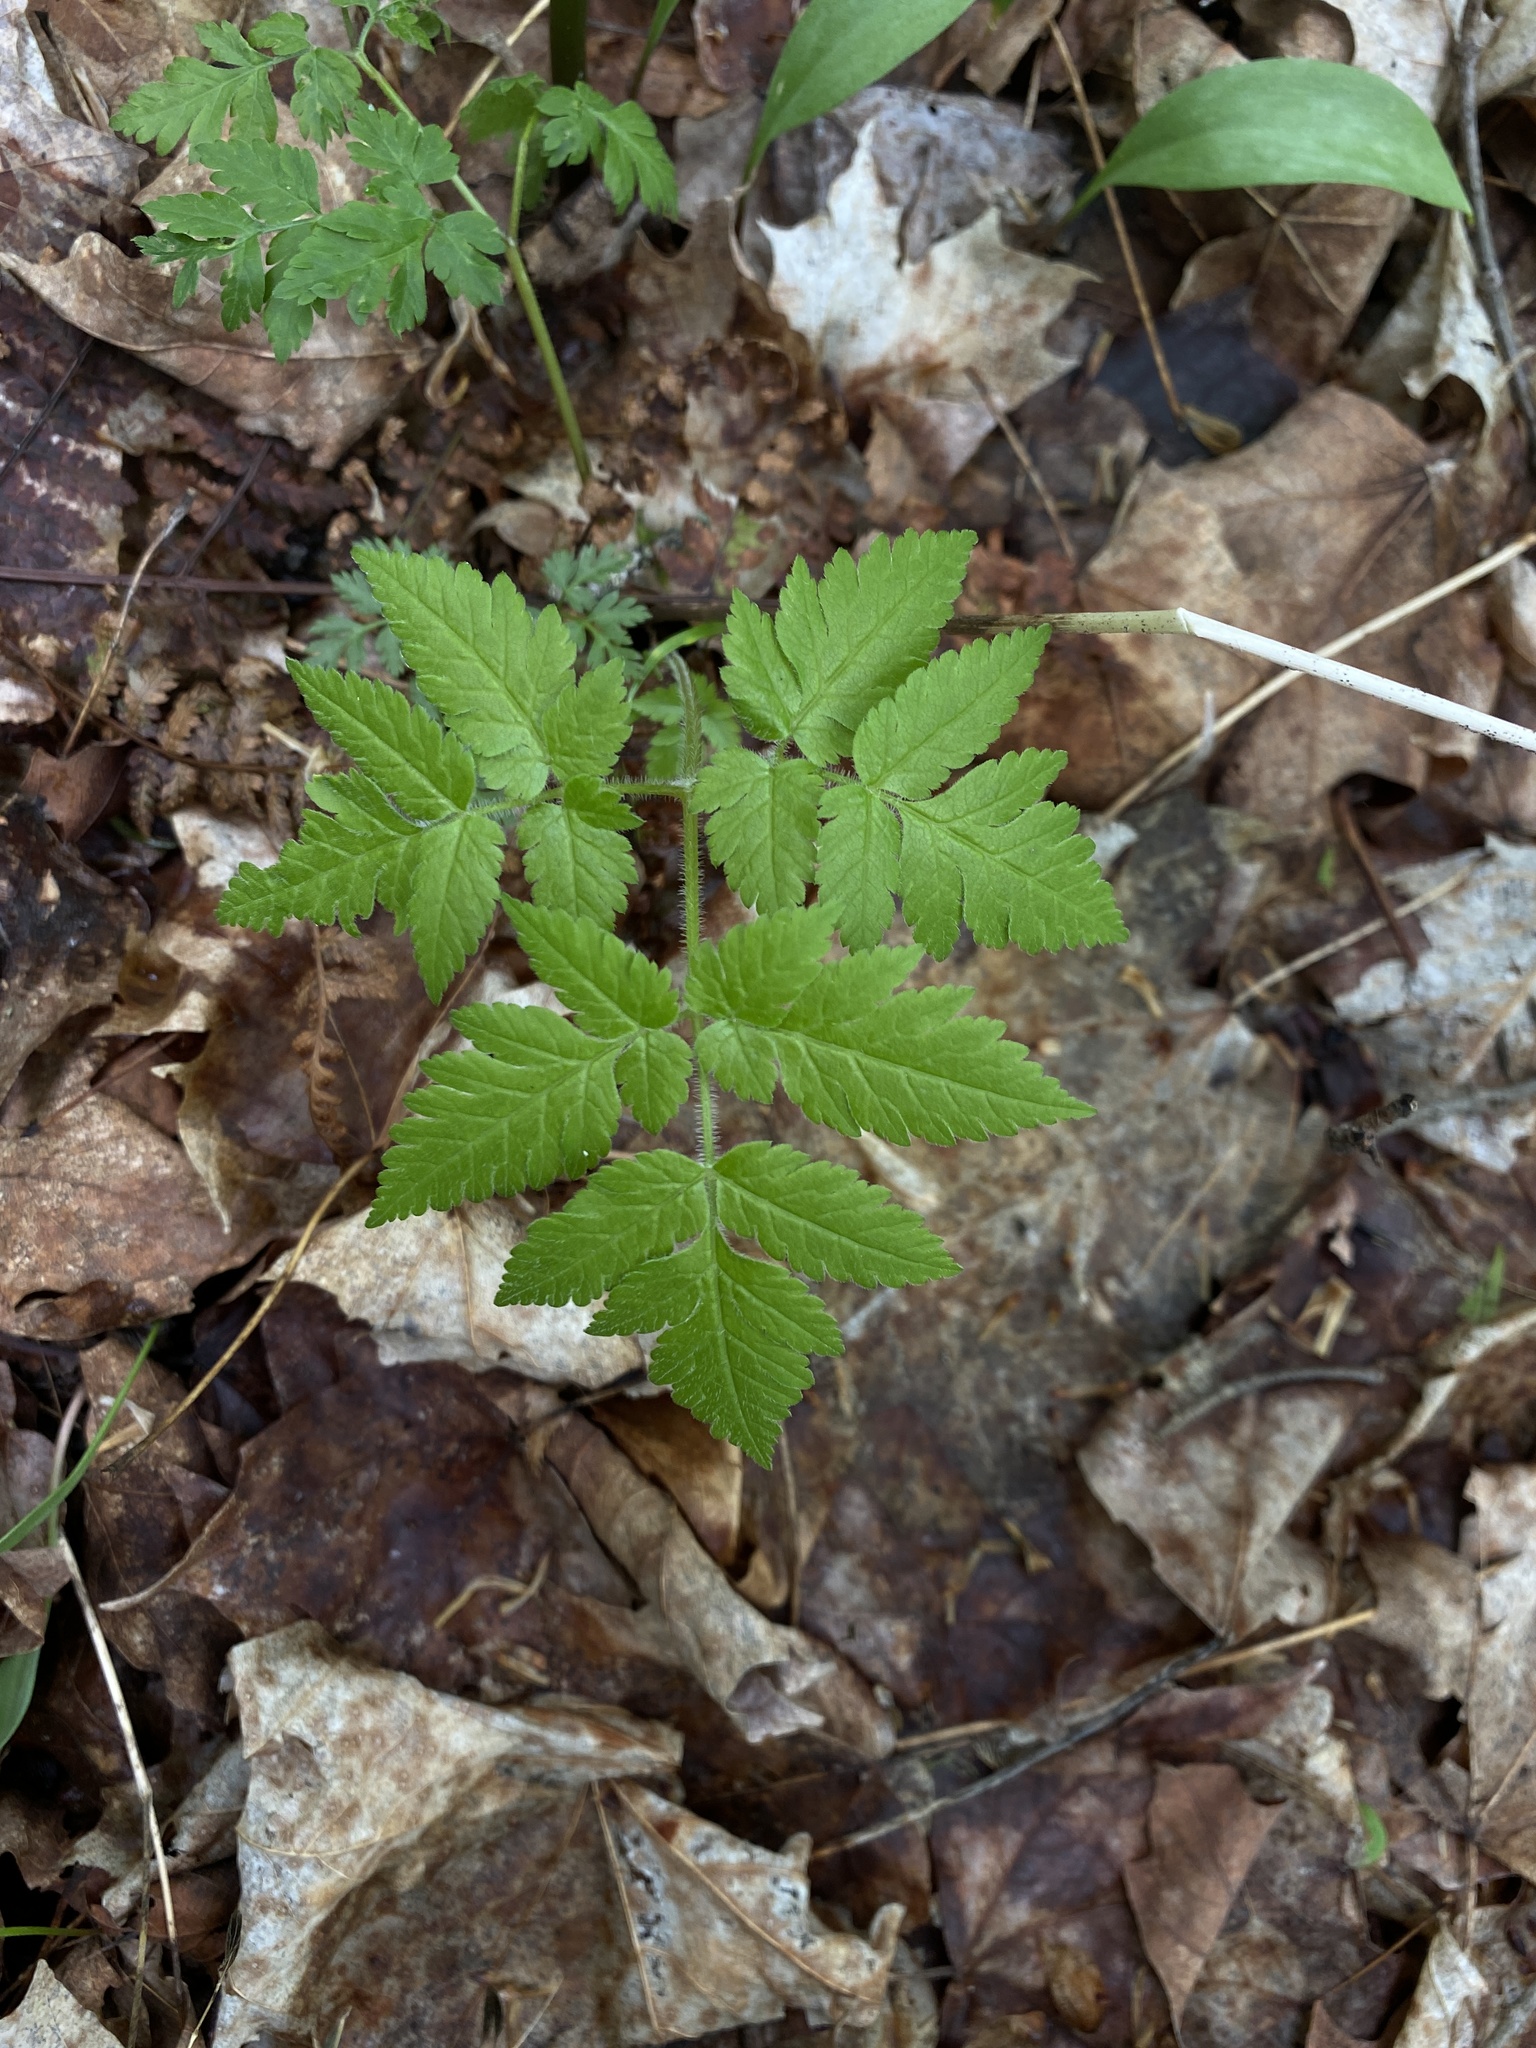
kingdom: Plantae
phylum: Tracheophyta
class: Magnoliopsida
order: Apiales
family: Apiaceae
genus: Osmorhiza
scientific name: Osmorhiza claytonii
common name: Hairy sweet cicely
